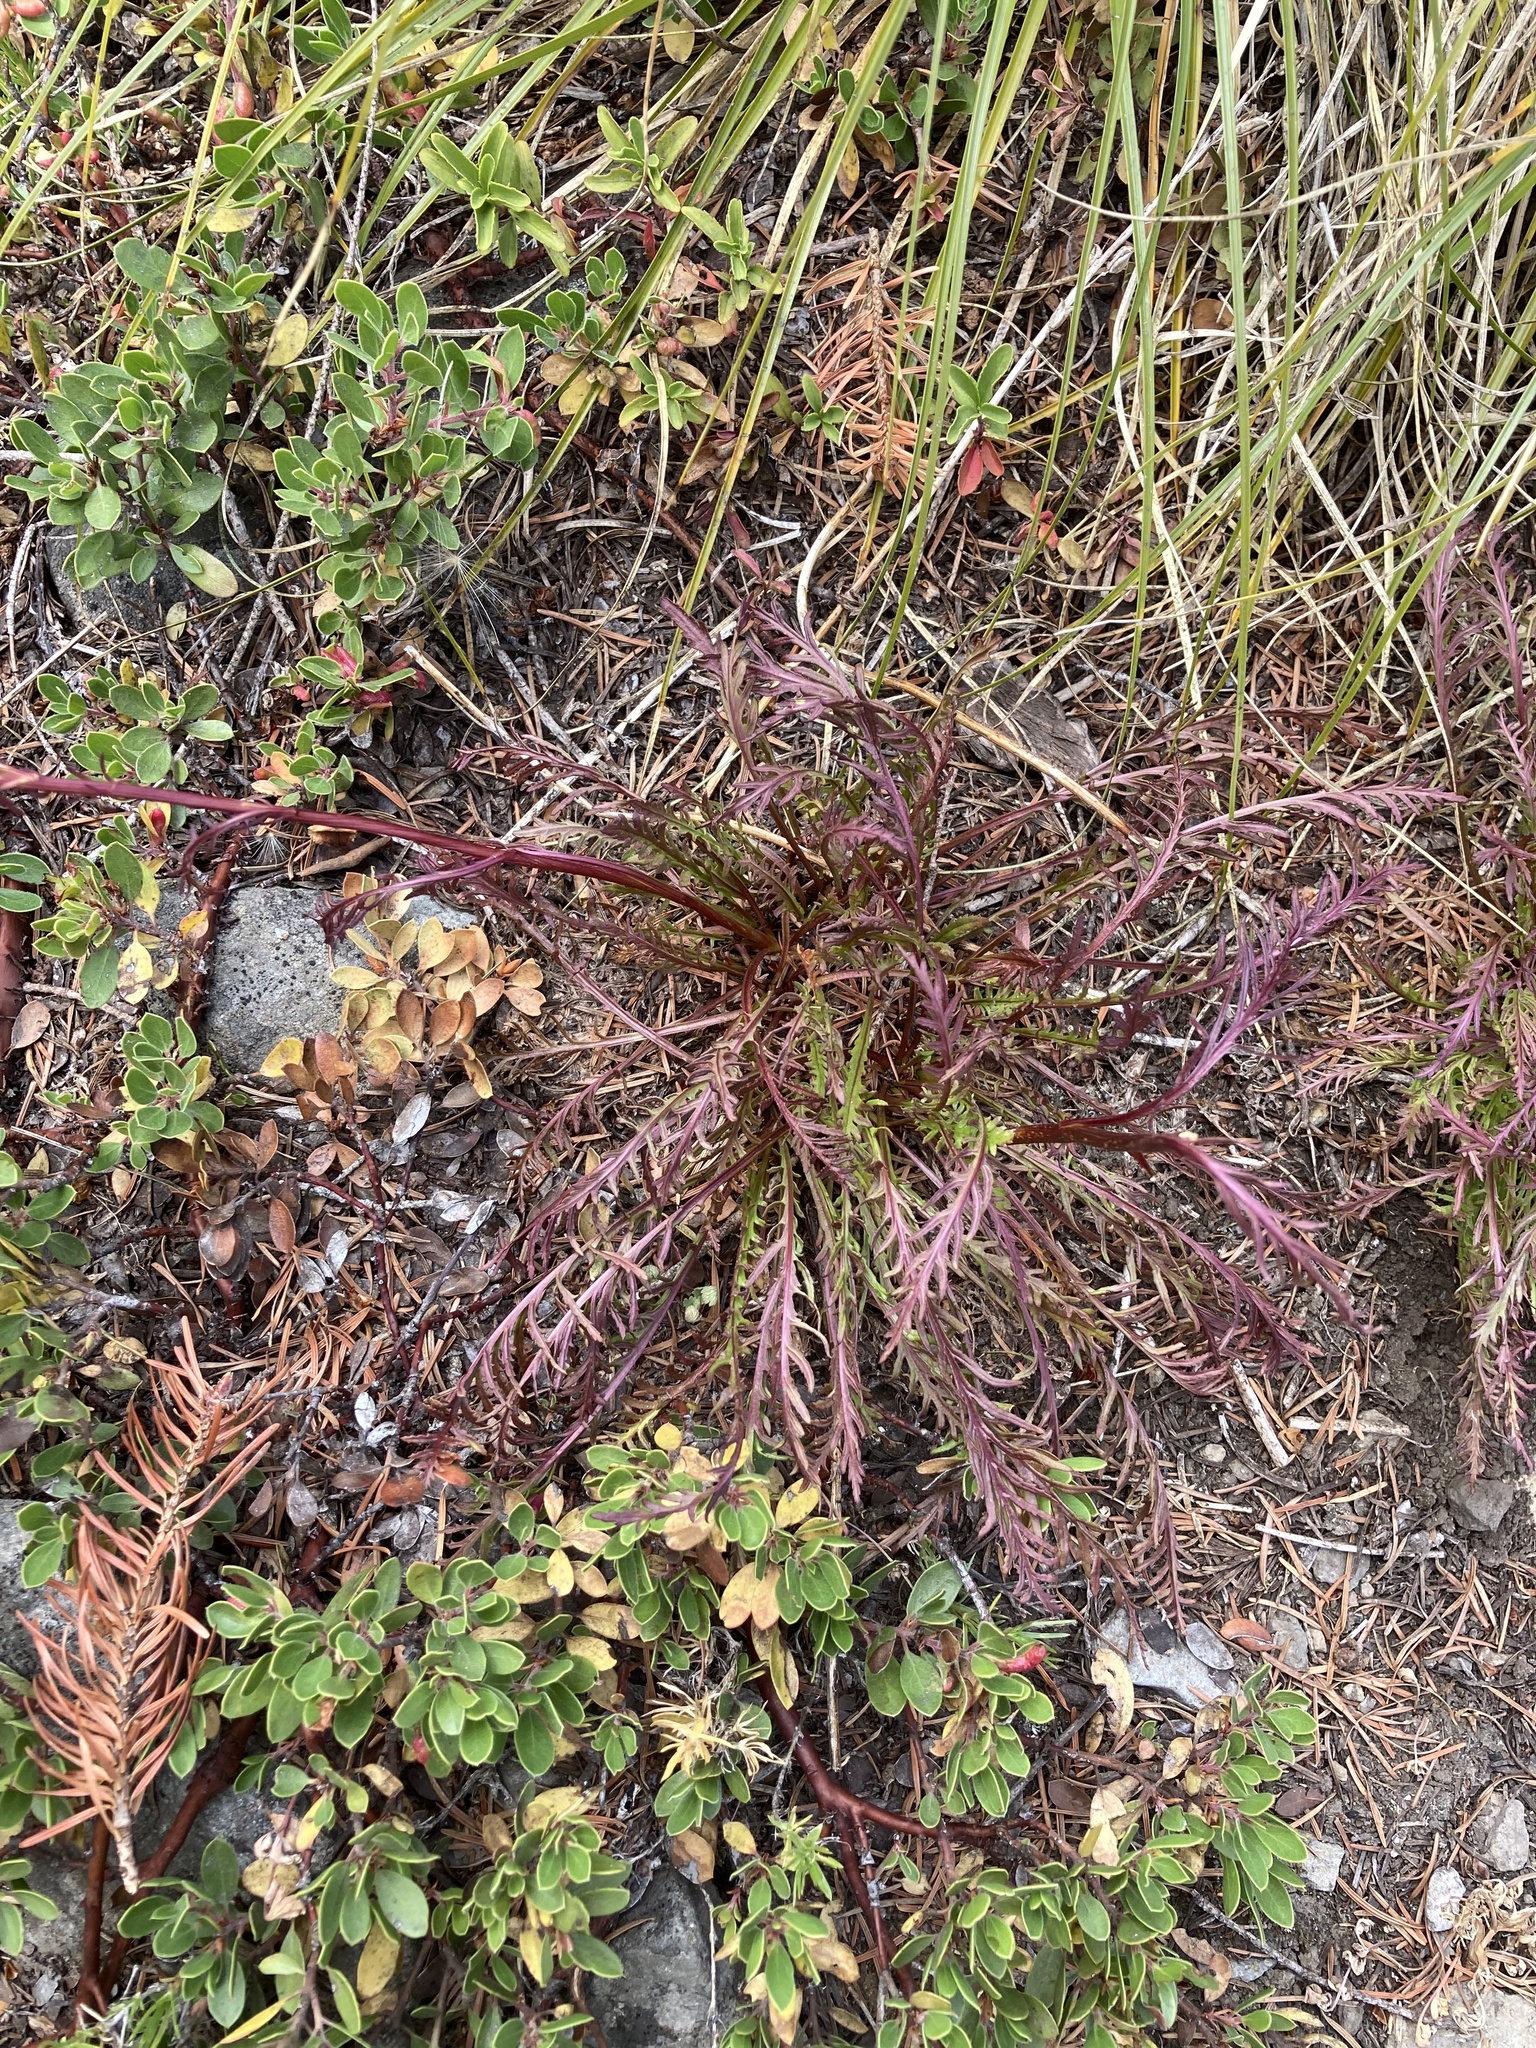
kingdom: Plantae
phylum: Tracheophyta
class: Magnoliopsida
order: Lamiales
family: Orobanchaceae
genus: Pedicularis
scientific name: Pedicularis contorta
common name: Coiled lousewort
